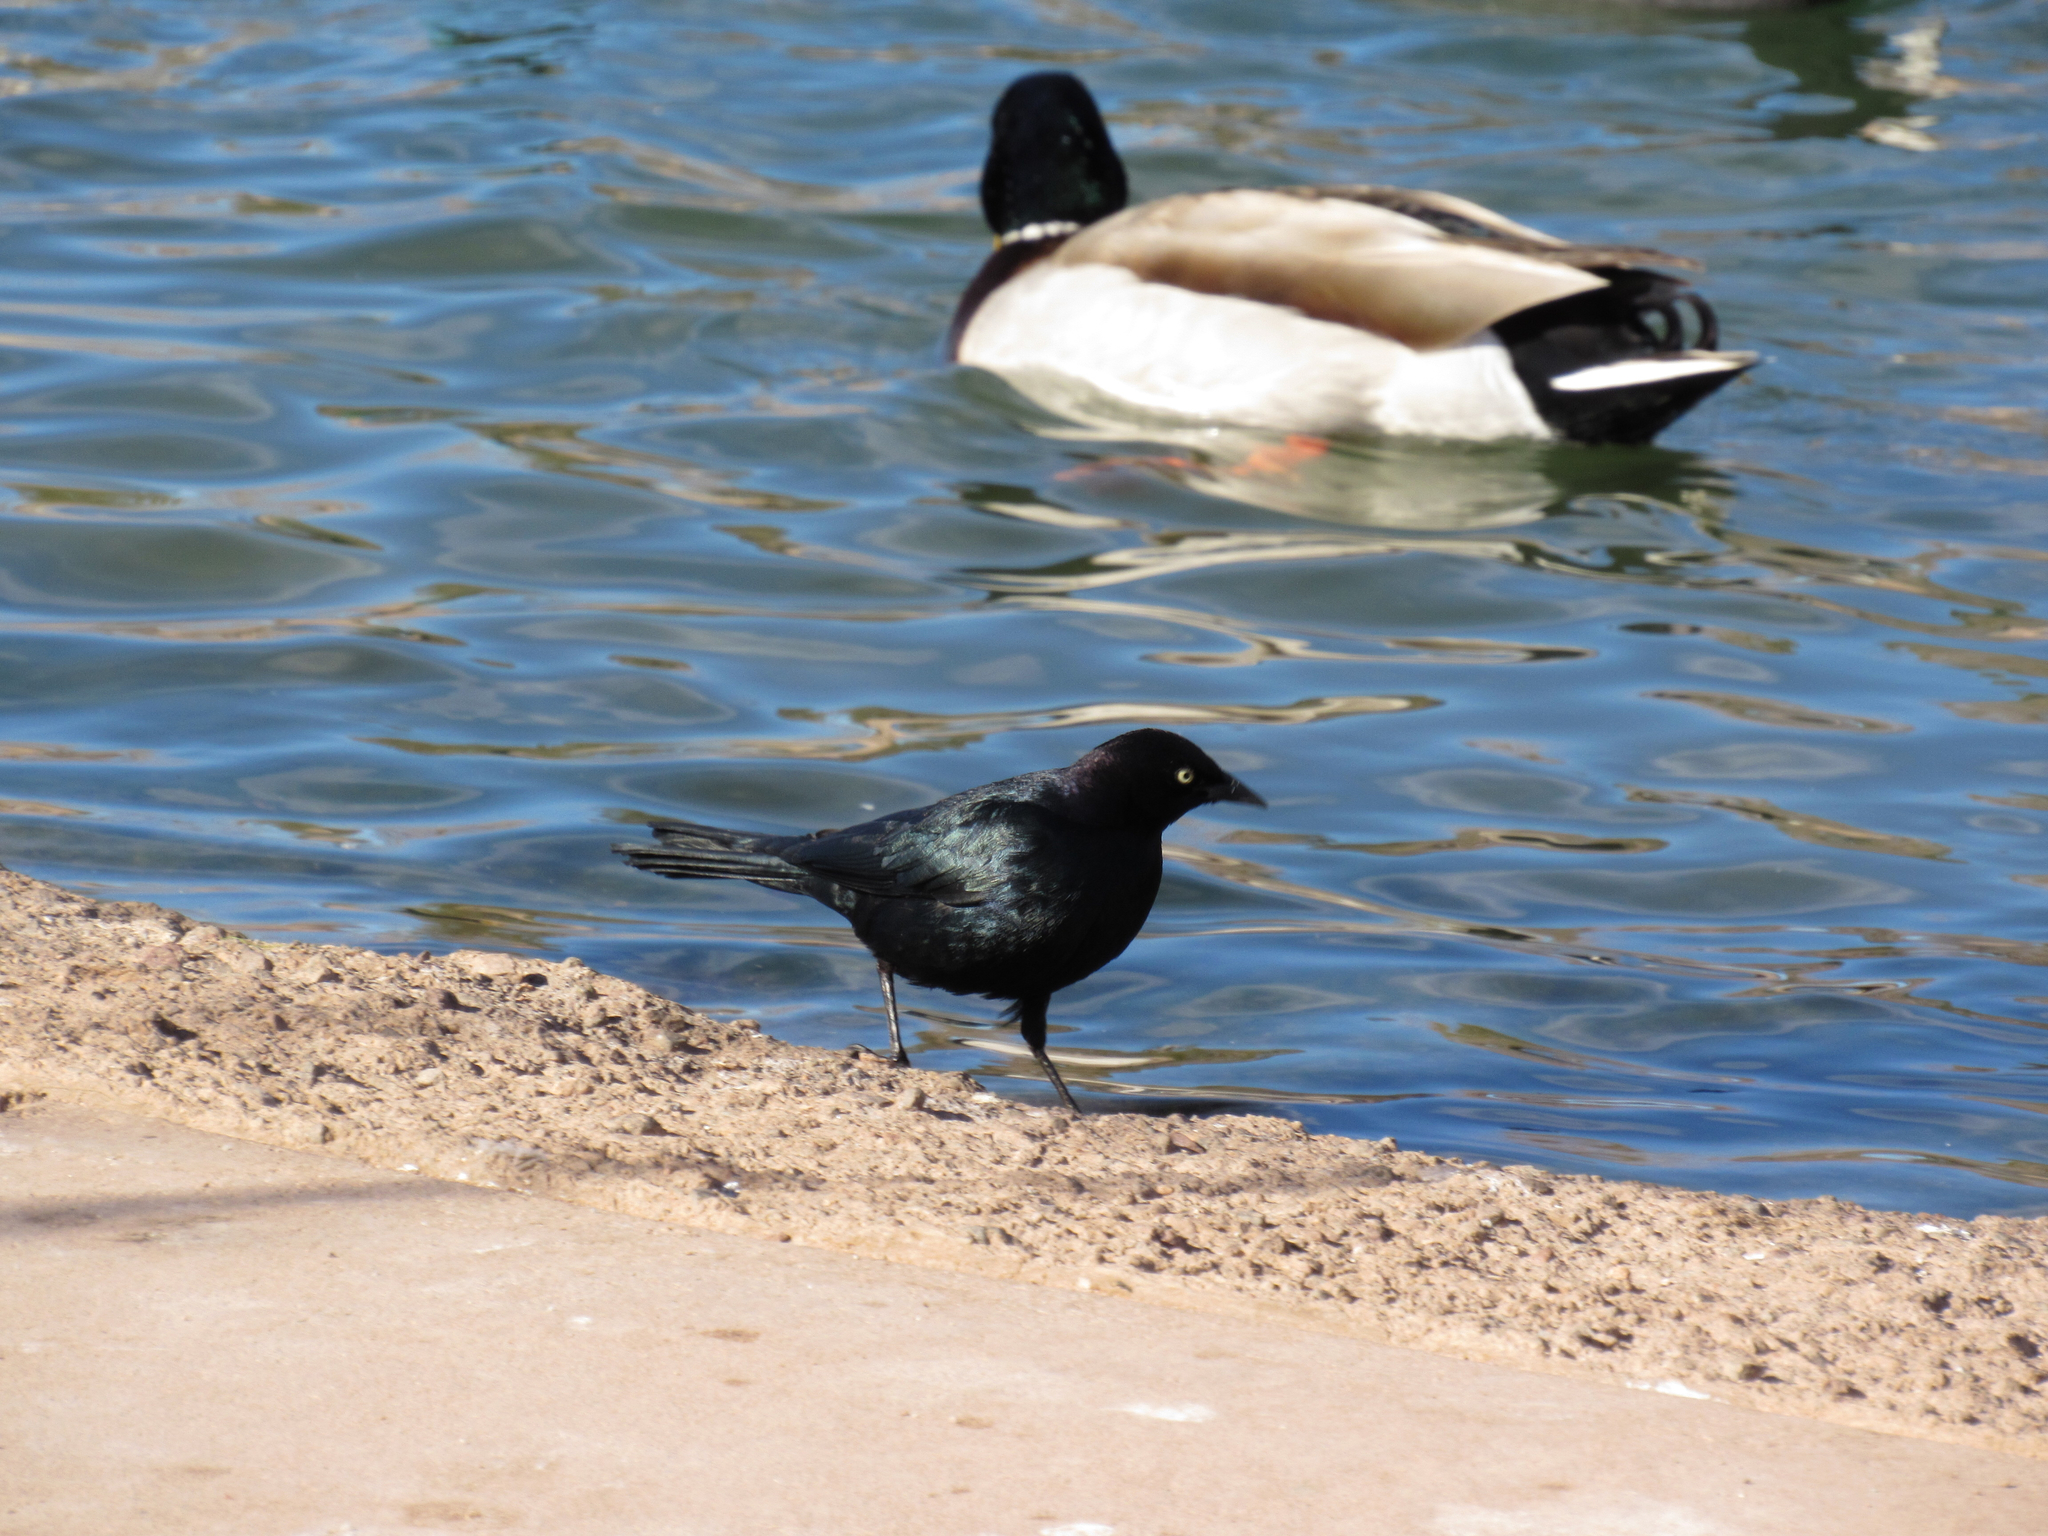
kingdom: Animalia
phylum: Chordata
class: Aves
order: Passeriformes
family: Icteridae
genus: Euphagus
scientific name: Euphagus cyanocephalus
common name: Brewer's blackbird
